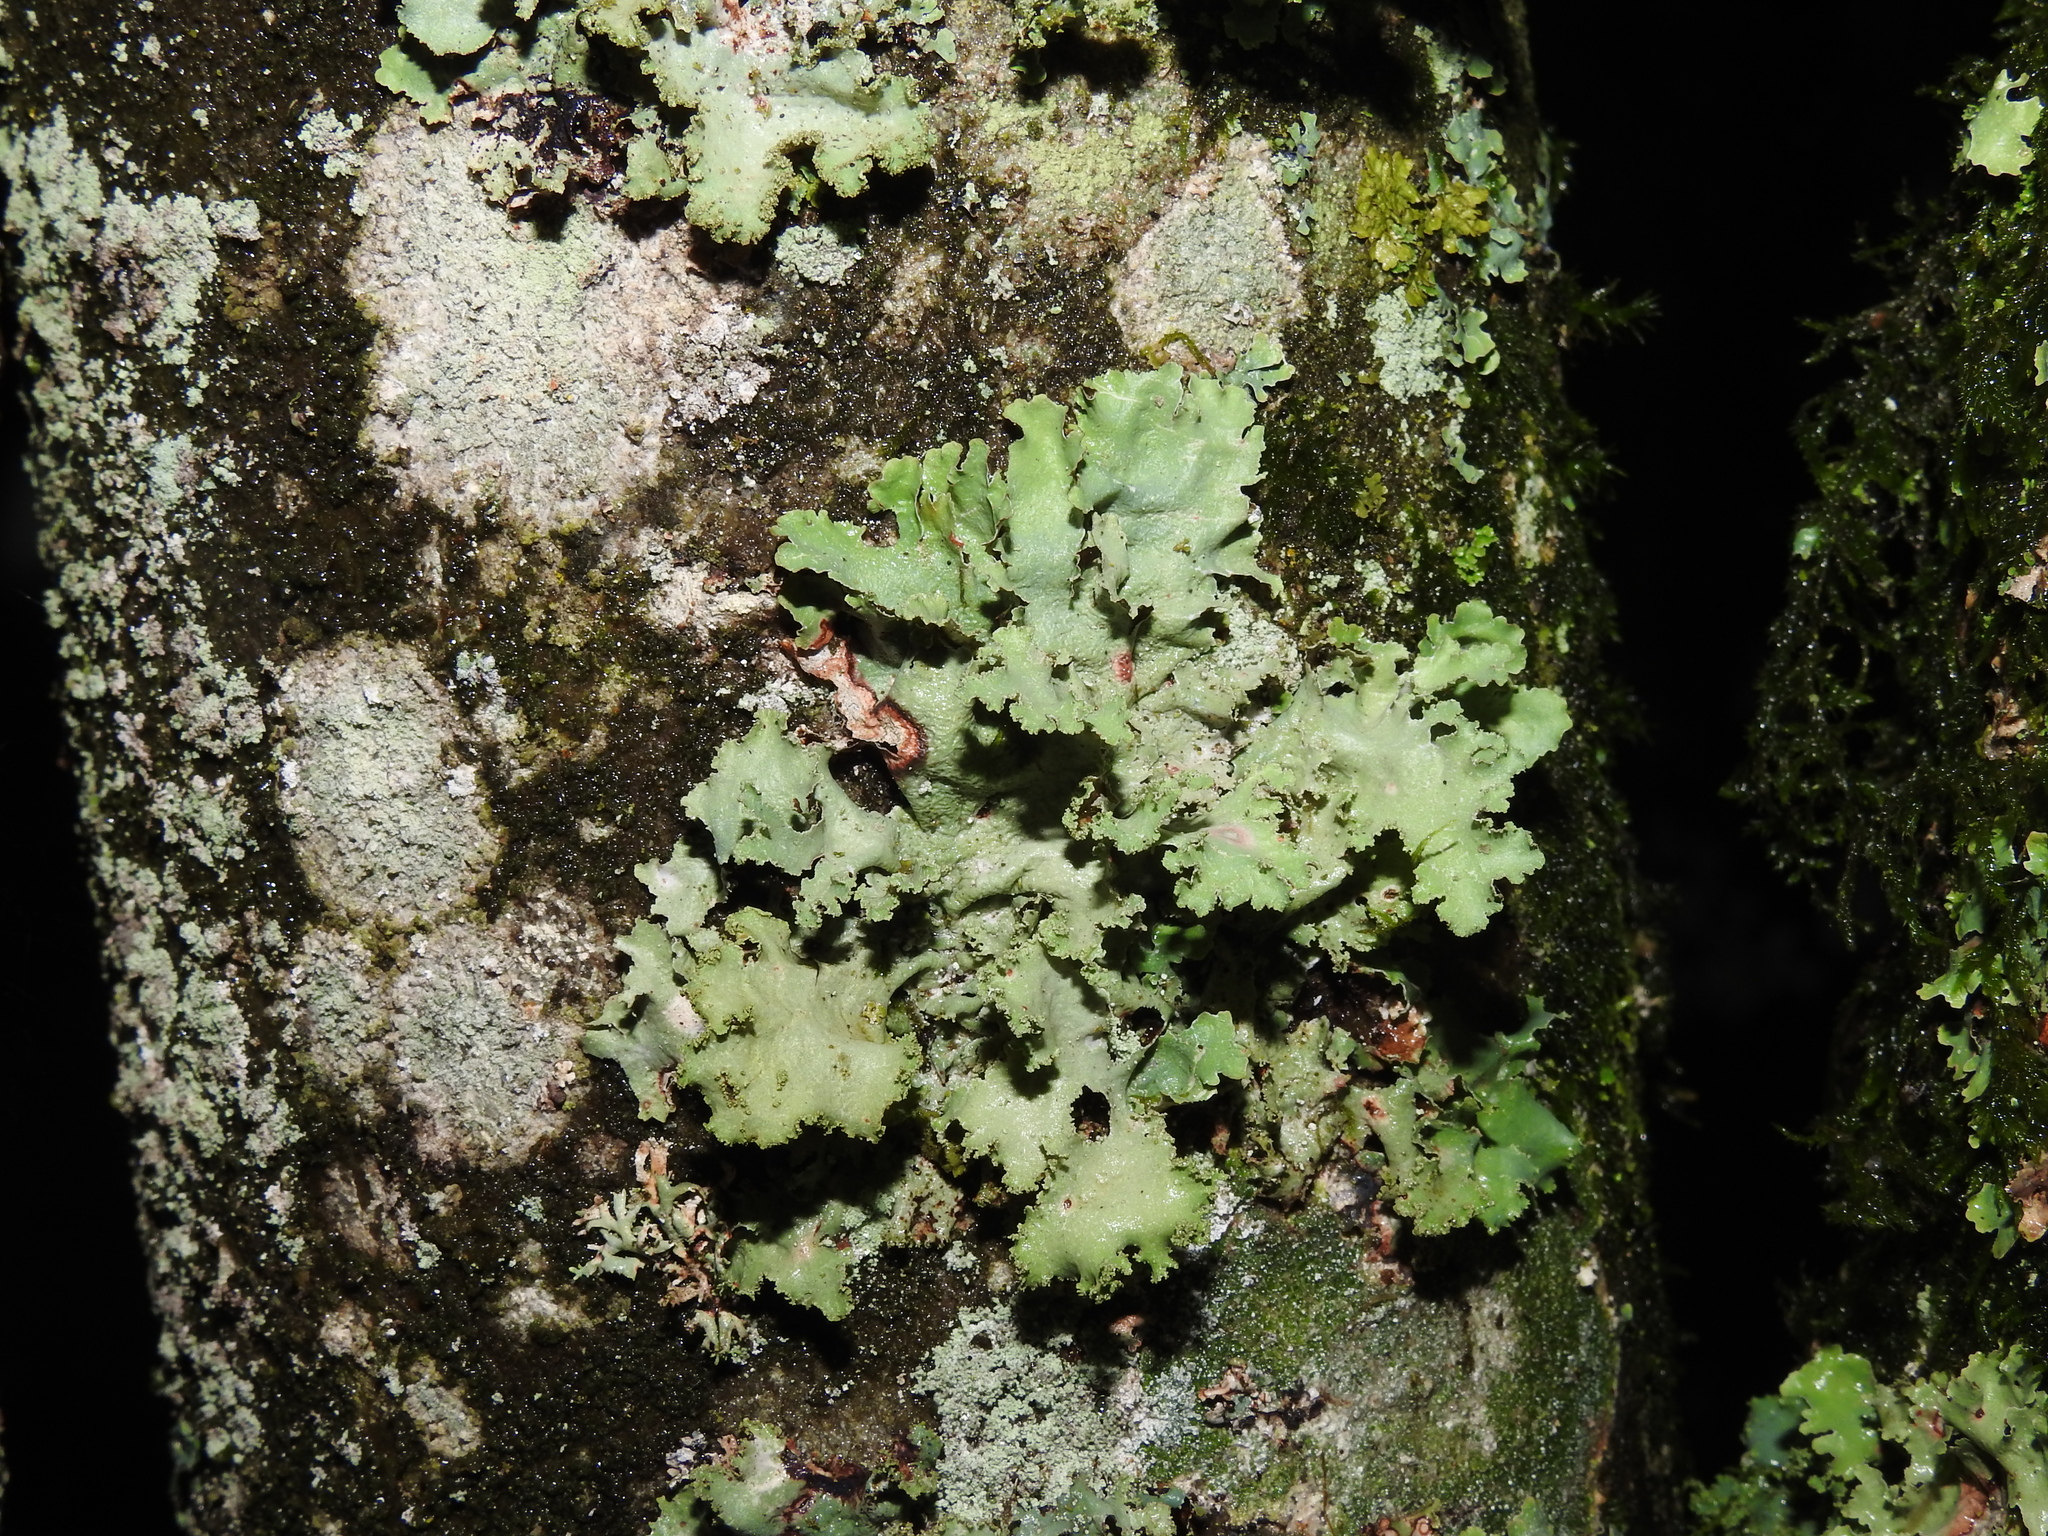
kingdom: Fungi
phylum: Ascomycota
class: Lecanoromycetes
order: Lecanorales
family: Parmeliaceae
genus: Platismatia
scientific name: Platismatia glauca
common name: Varied rag lichen
